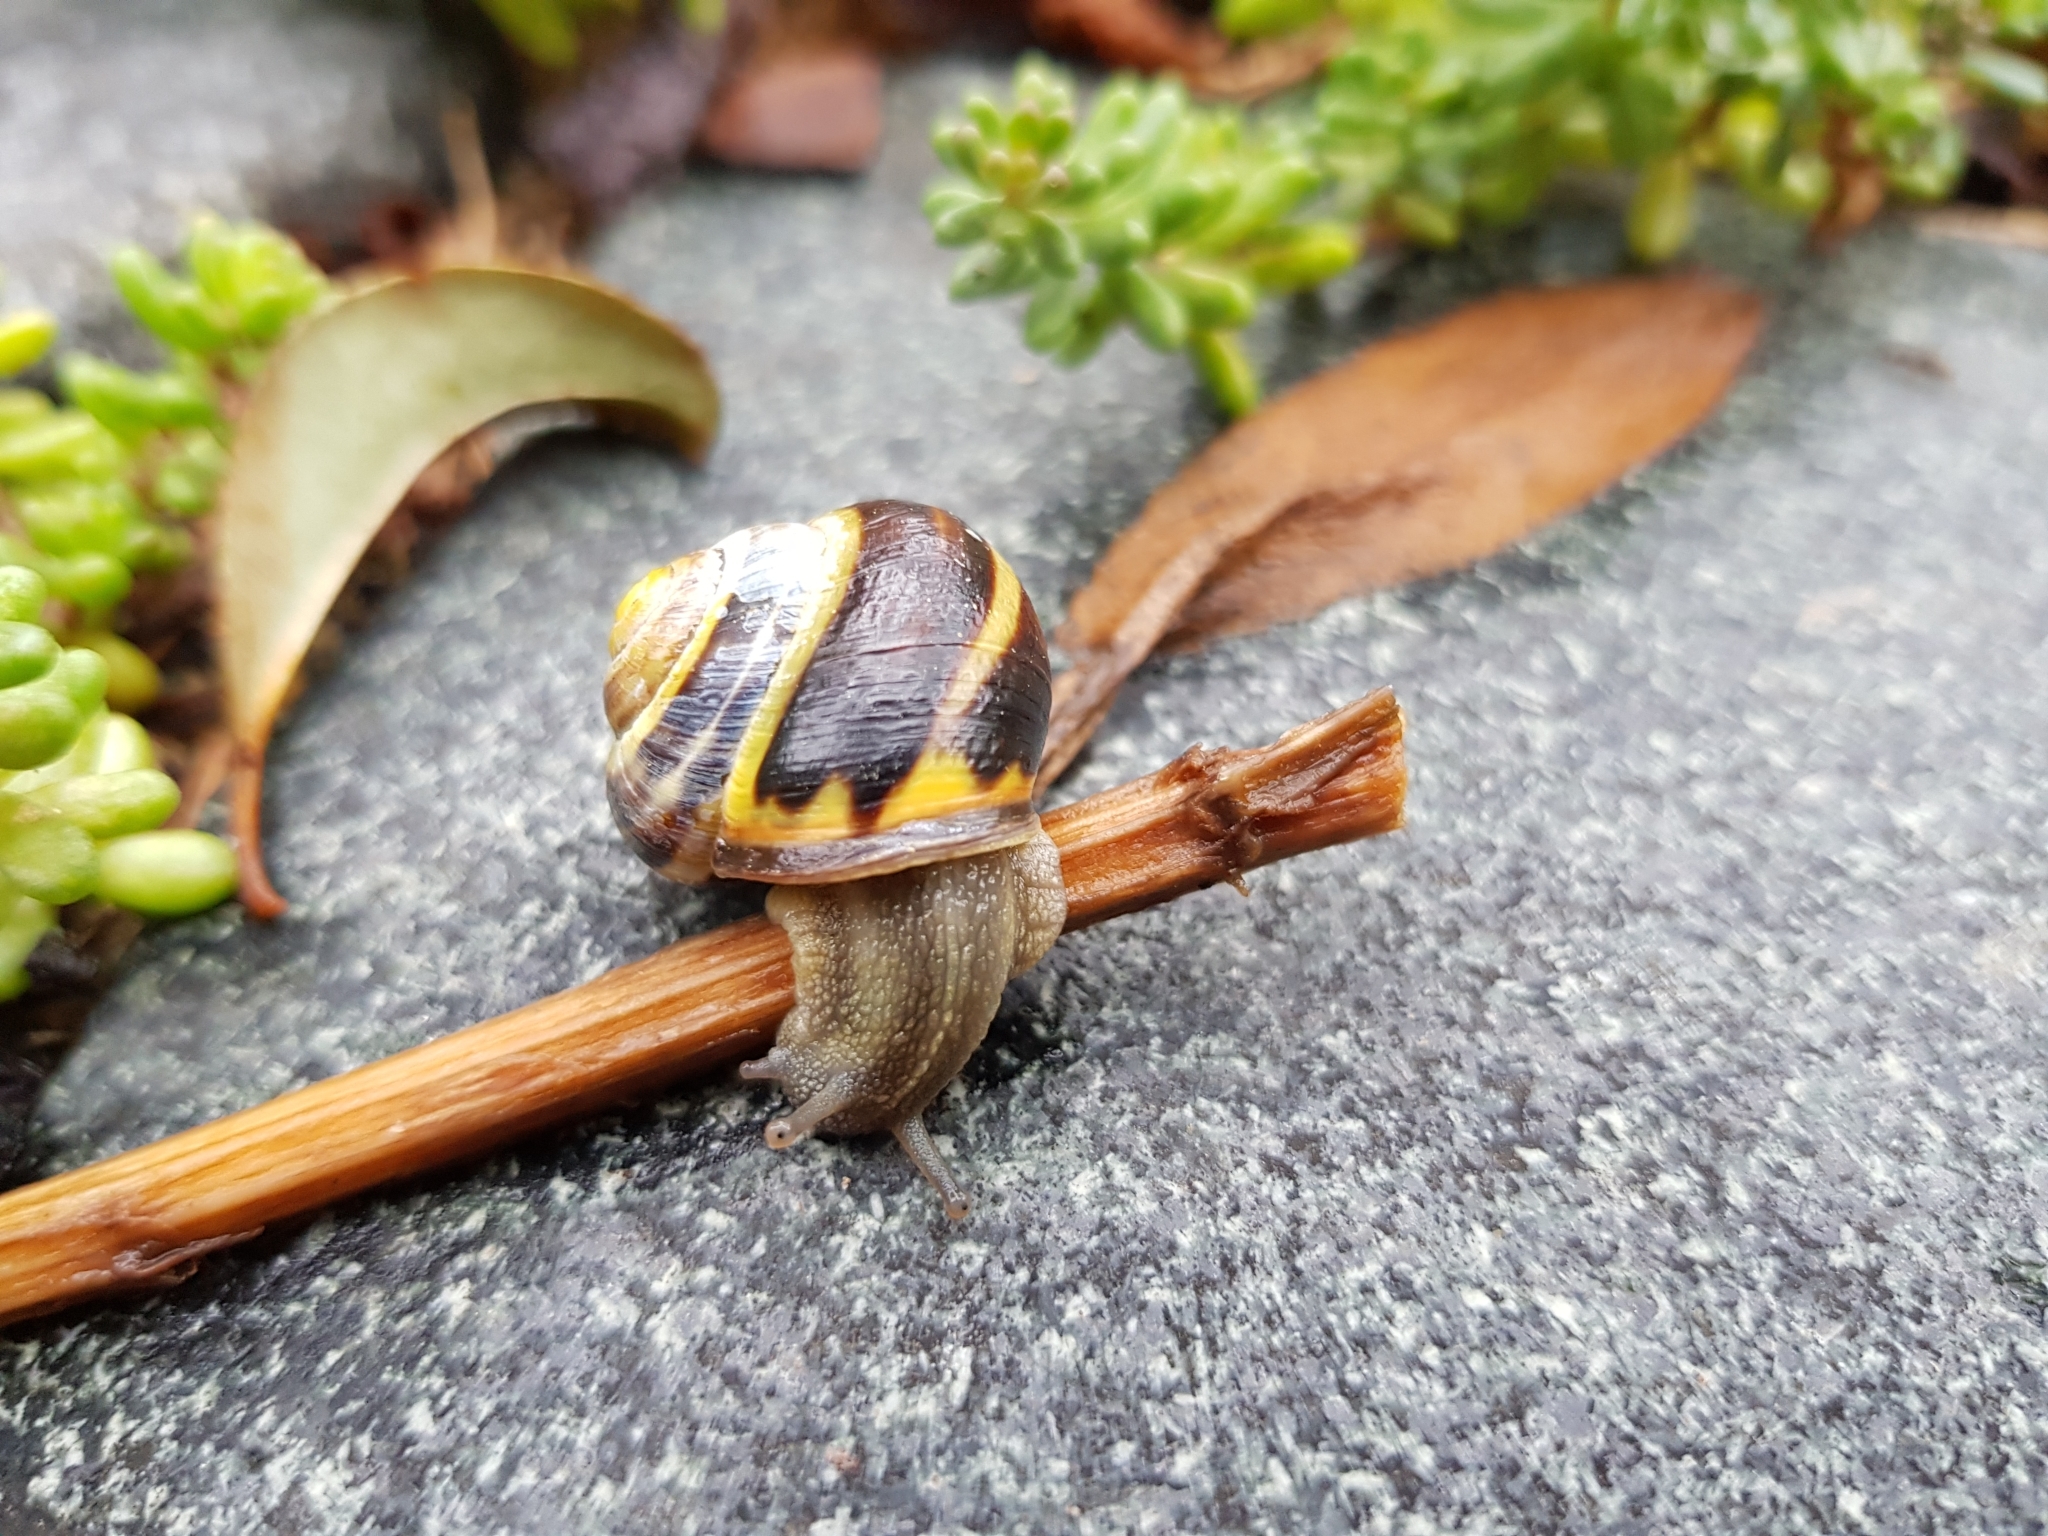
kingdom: Animalia
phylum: Mollusca
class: Gastropoda
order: Stylommatophora
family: Helicidae
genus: Cepaea
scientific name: Cepaea nemoralis
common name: Grovesnail
